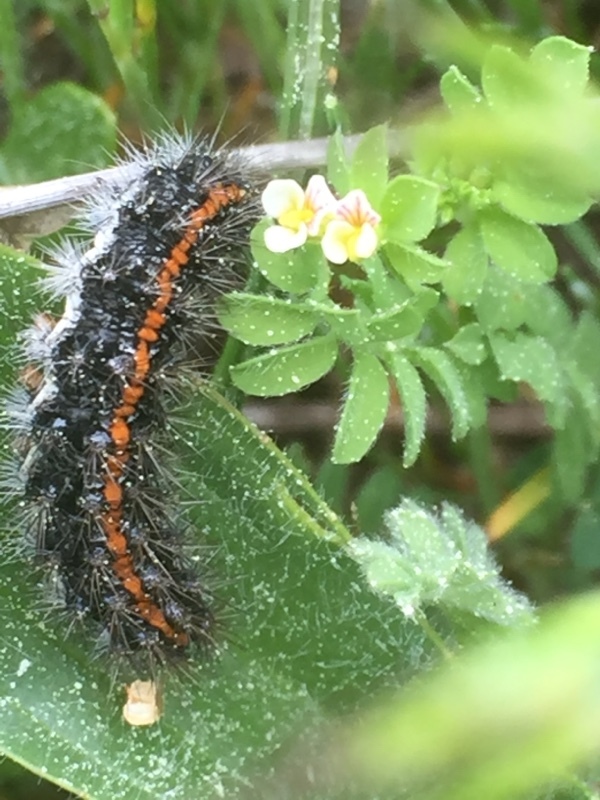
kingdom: Animalia
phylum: Arthropoda
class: Insecta
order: Lepidoptera
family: Erebidae
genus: Coscinia
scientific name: Coscinia Spiris striata
